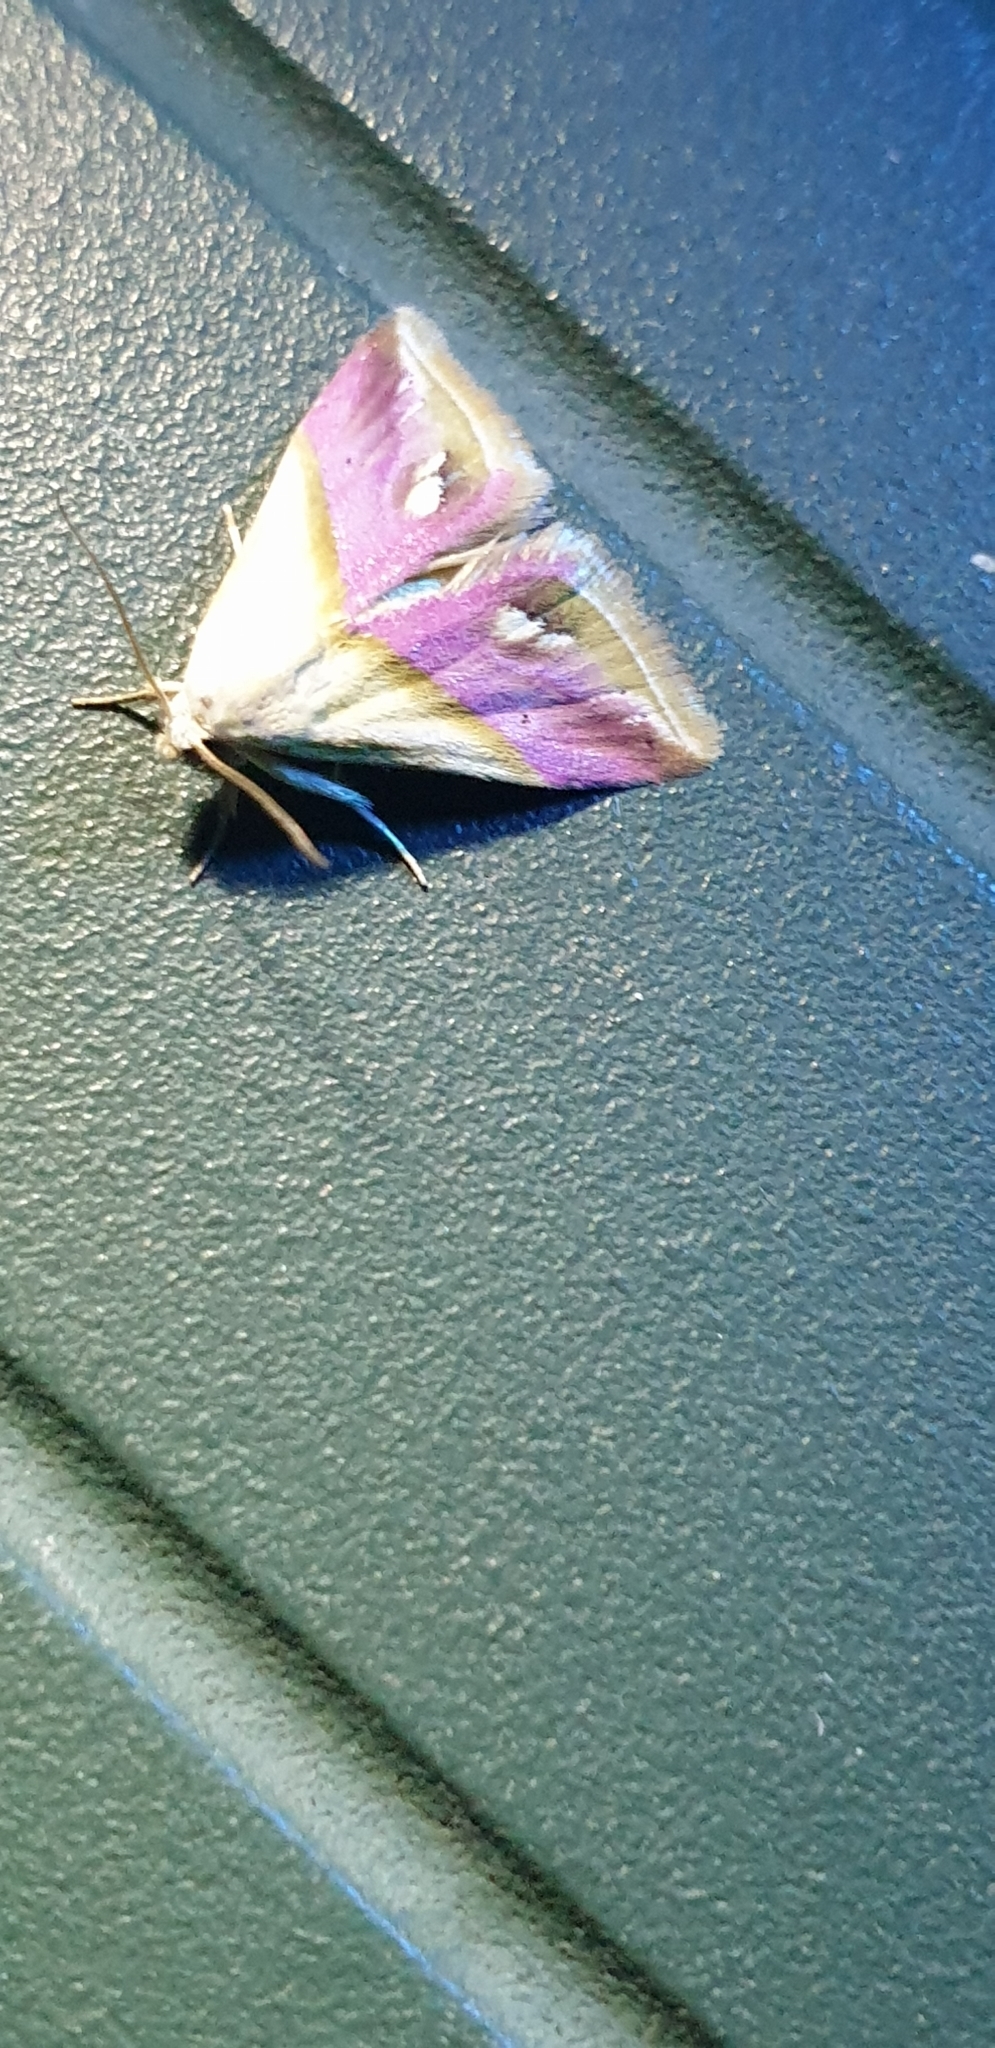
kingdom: Animalia
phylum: Arthropoda
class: Insecta
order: Lepidoptera
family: Noctuidae
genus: Eublemma
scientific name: Eublemma cochylioides
